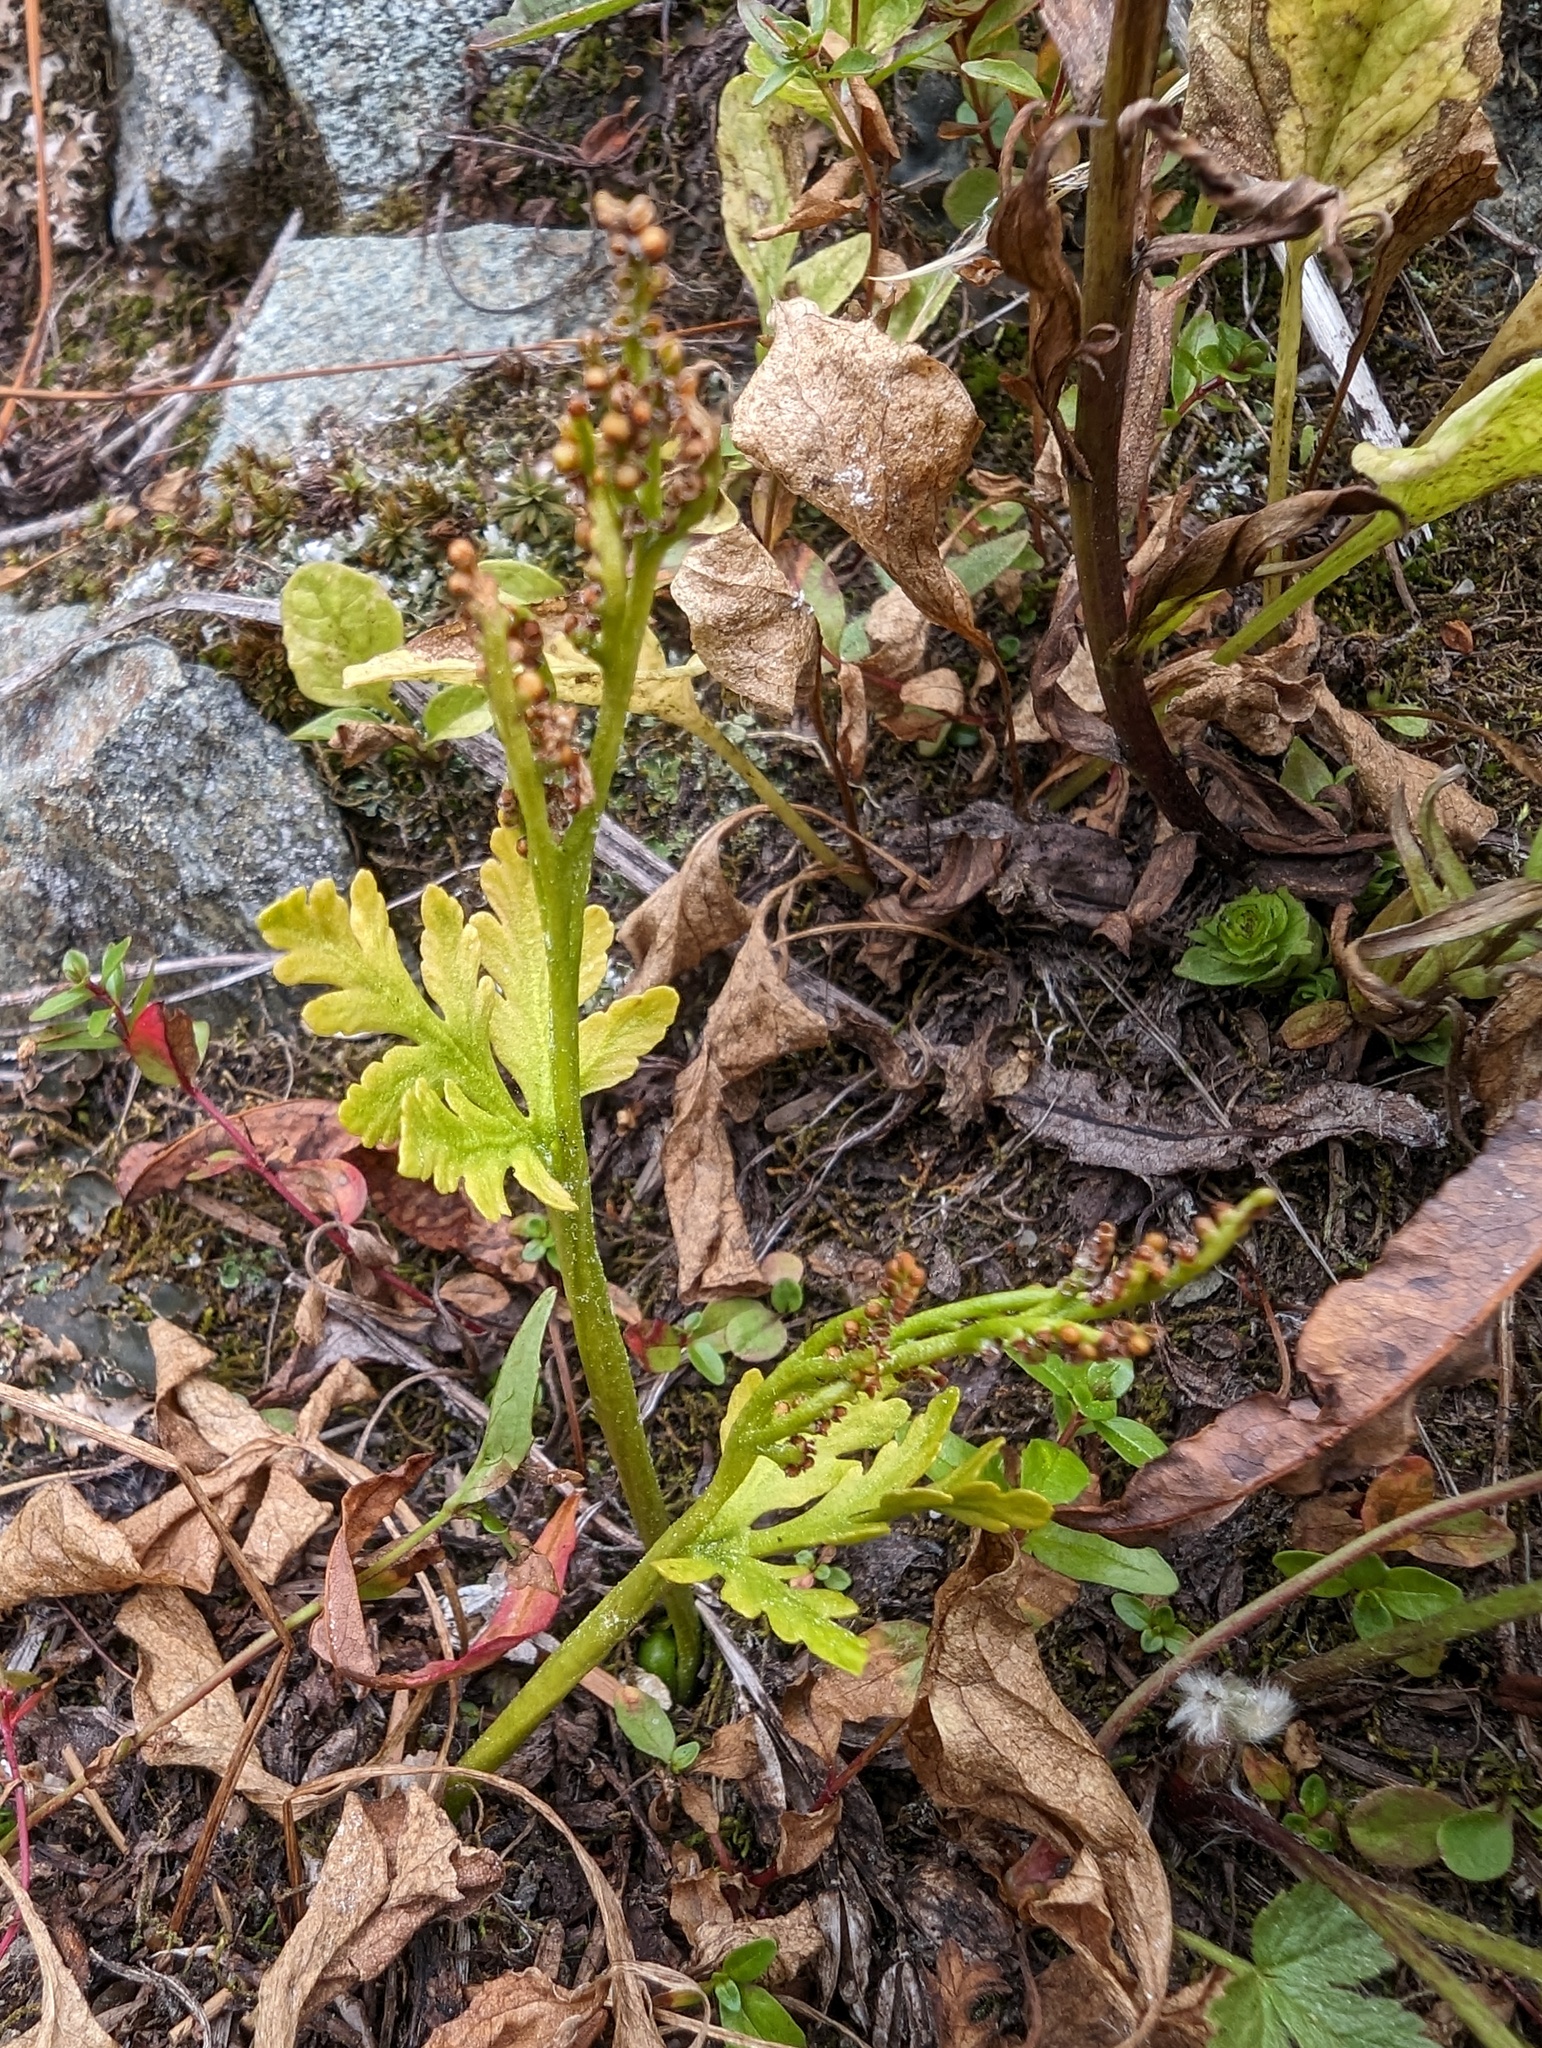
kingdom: Plantae
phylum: Tracheophyta
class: Polypodiopsida
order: Ophioglossales
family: Ophioglossaceae
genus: Botrychium
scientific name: Botrychium lanceolatum
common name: Lance-leaved moonwort
